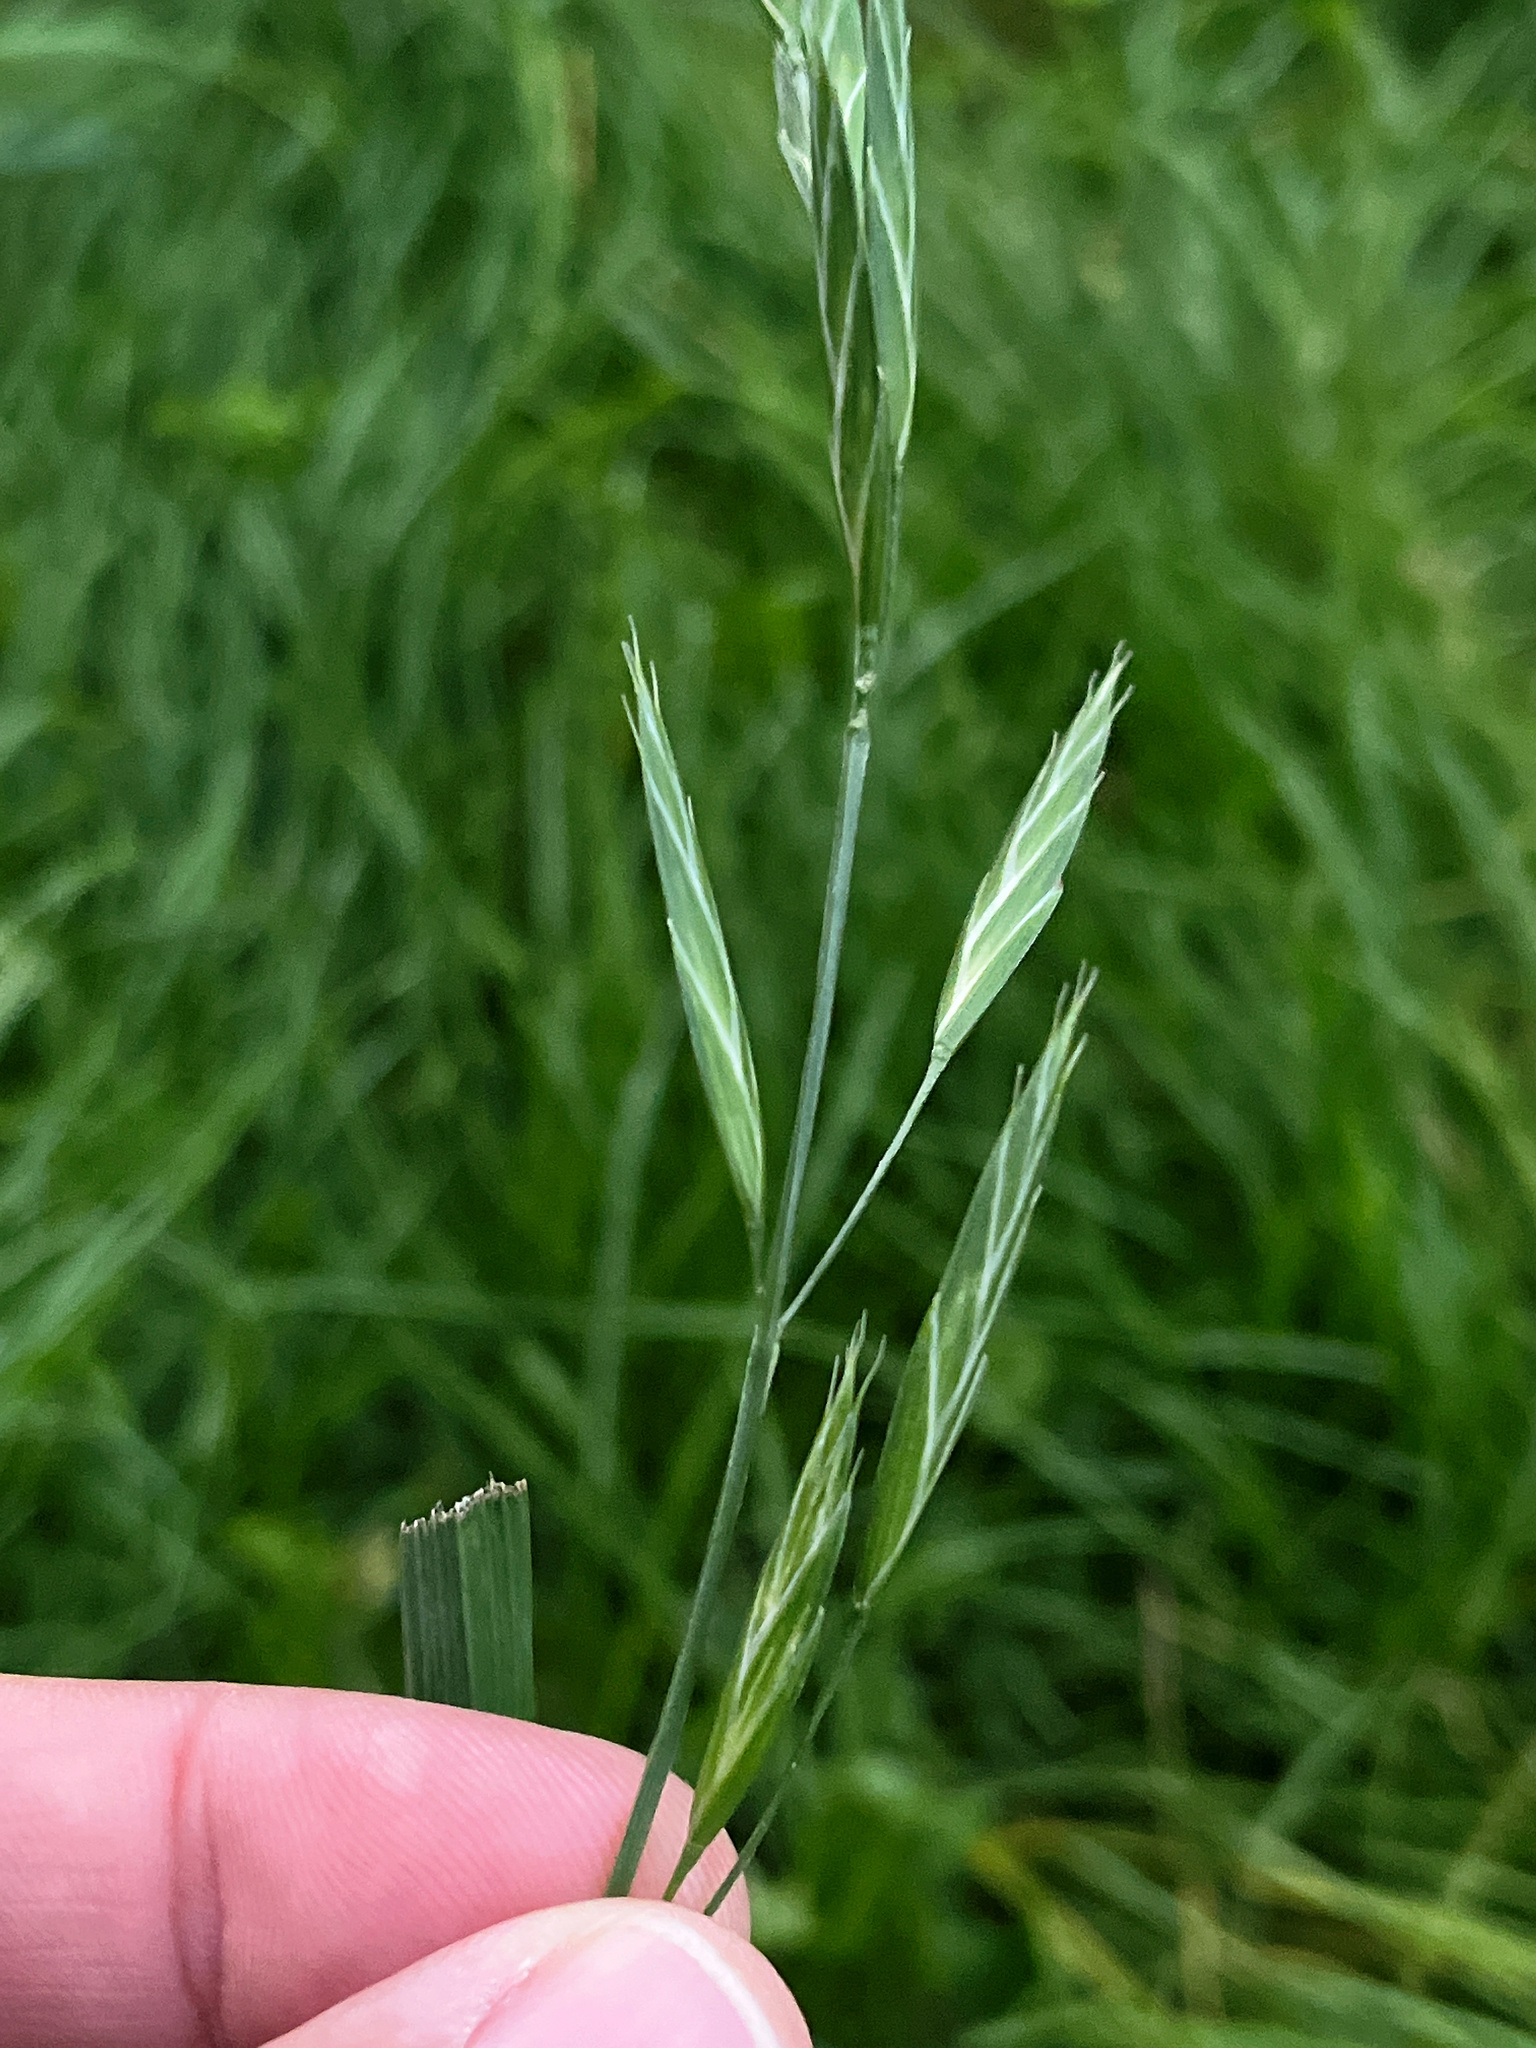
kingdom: Plantae
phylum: Tracheophyta
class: Liliopsida
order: Poales
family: Poaceae
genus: Bromus
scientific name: Bromus catharticus
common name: Rescuegrass
